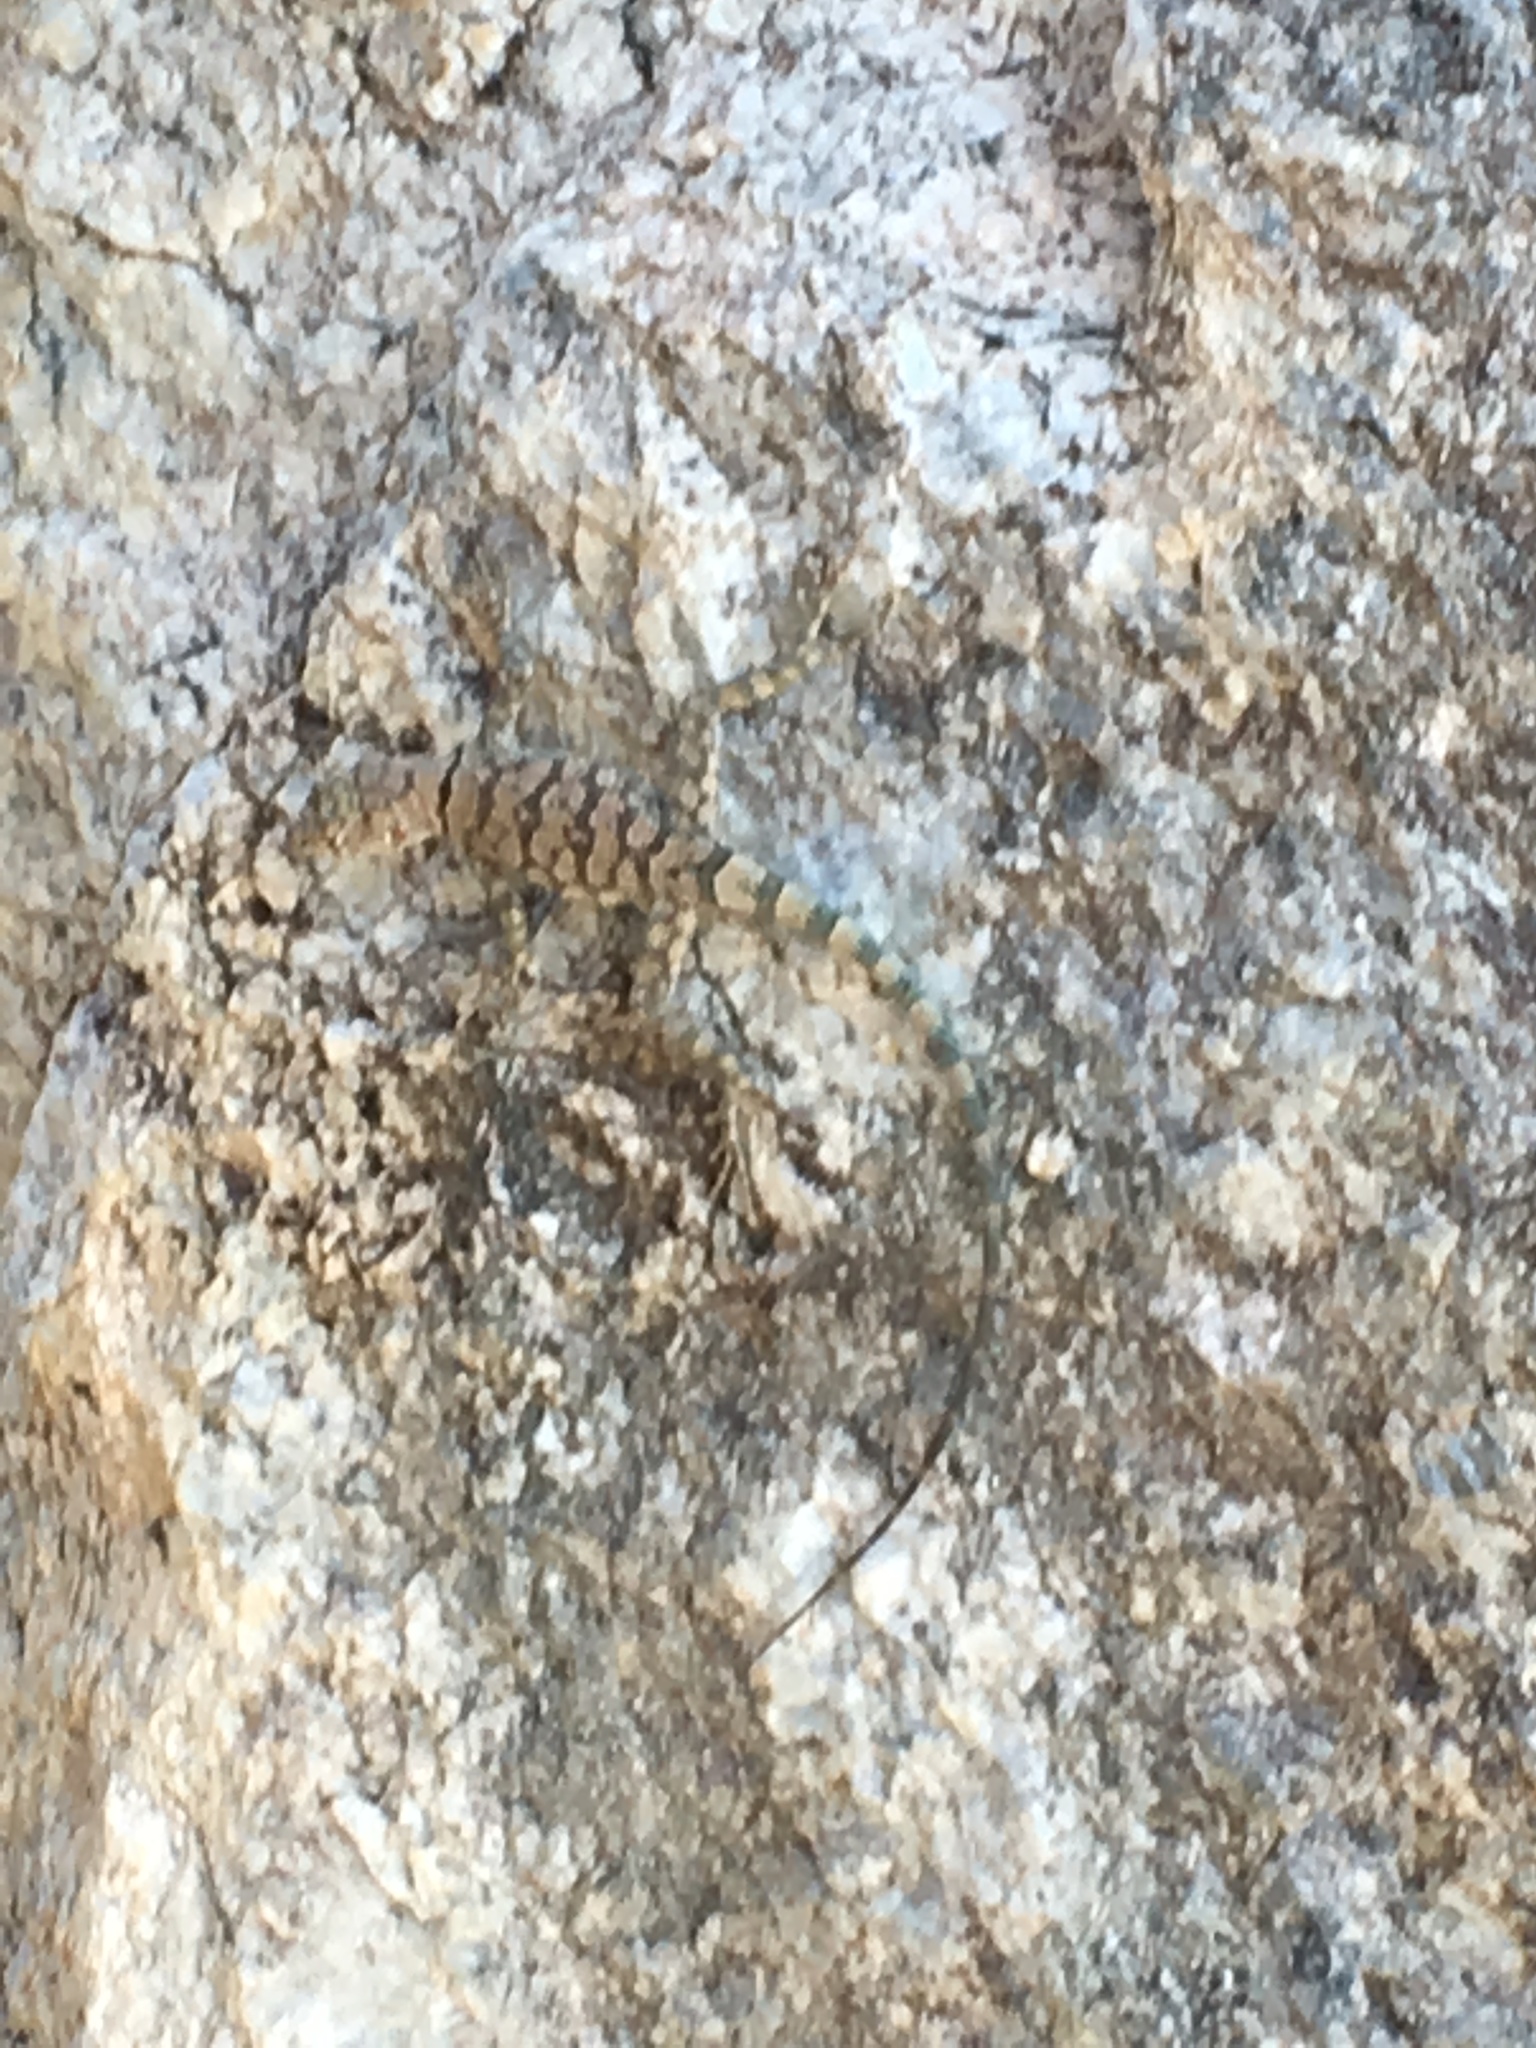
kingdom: Animalia
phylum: Chordata
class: Squamata
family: Phrynosomatidae
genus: Petrosaurus
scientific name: Petrosaurus mearnsi
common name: Banded rock lizard
